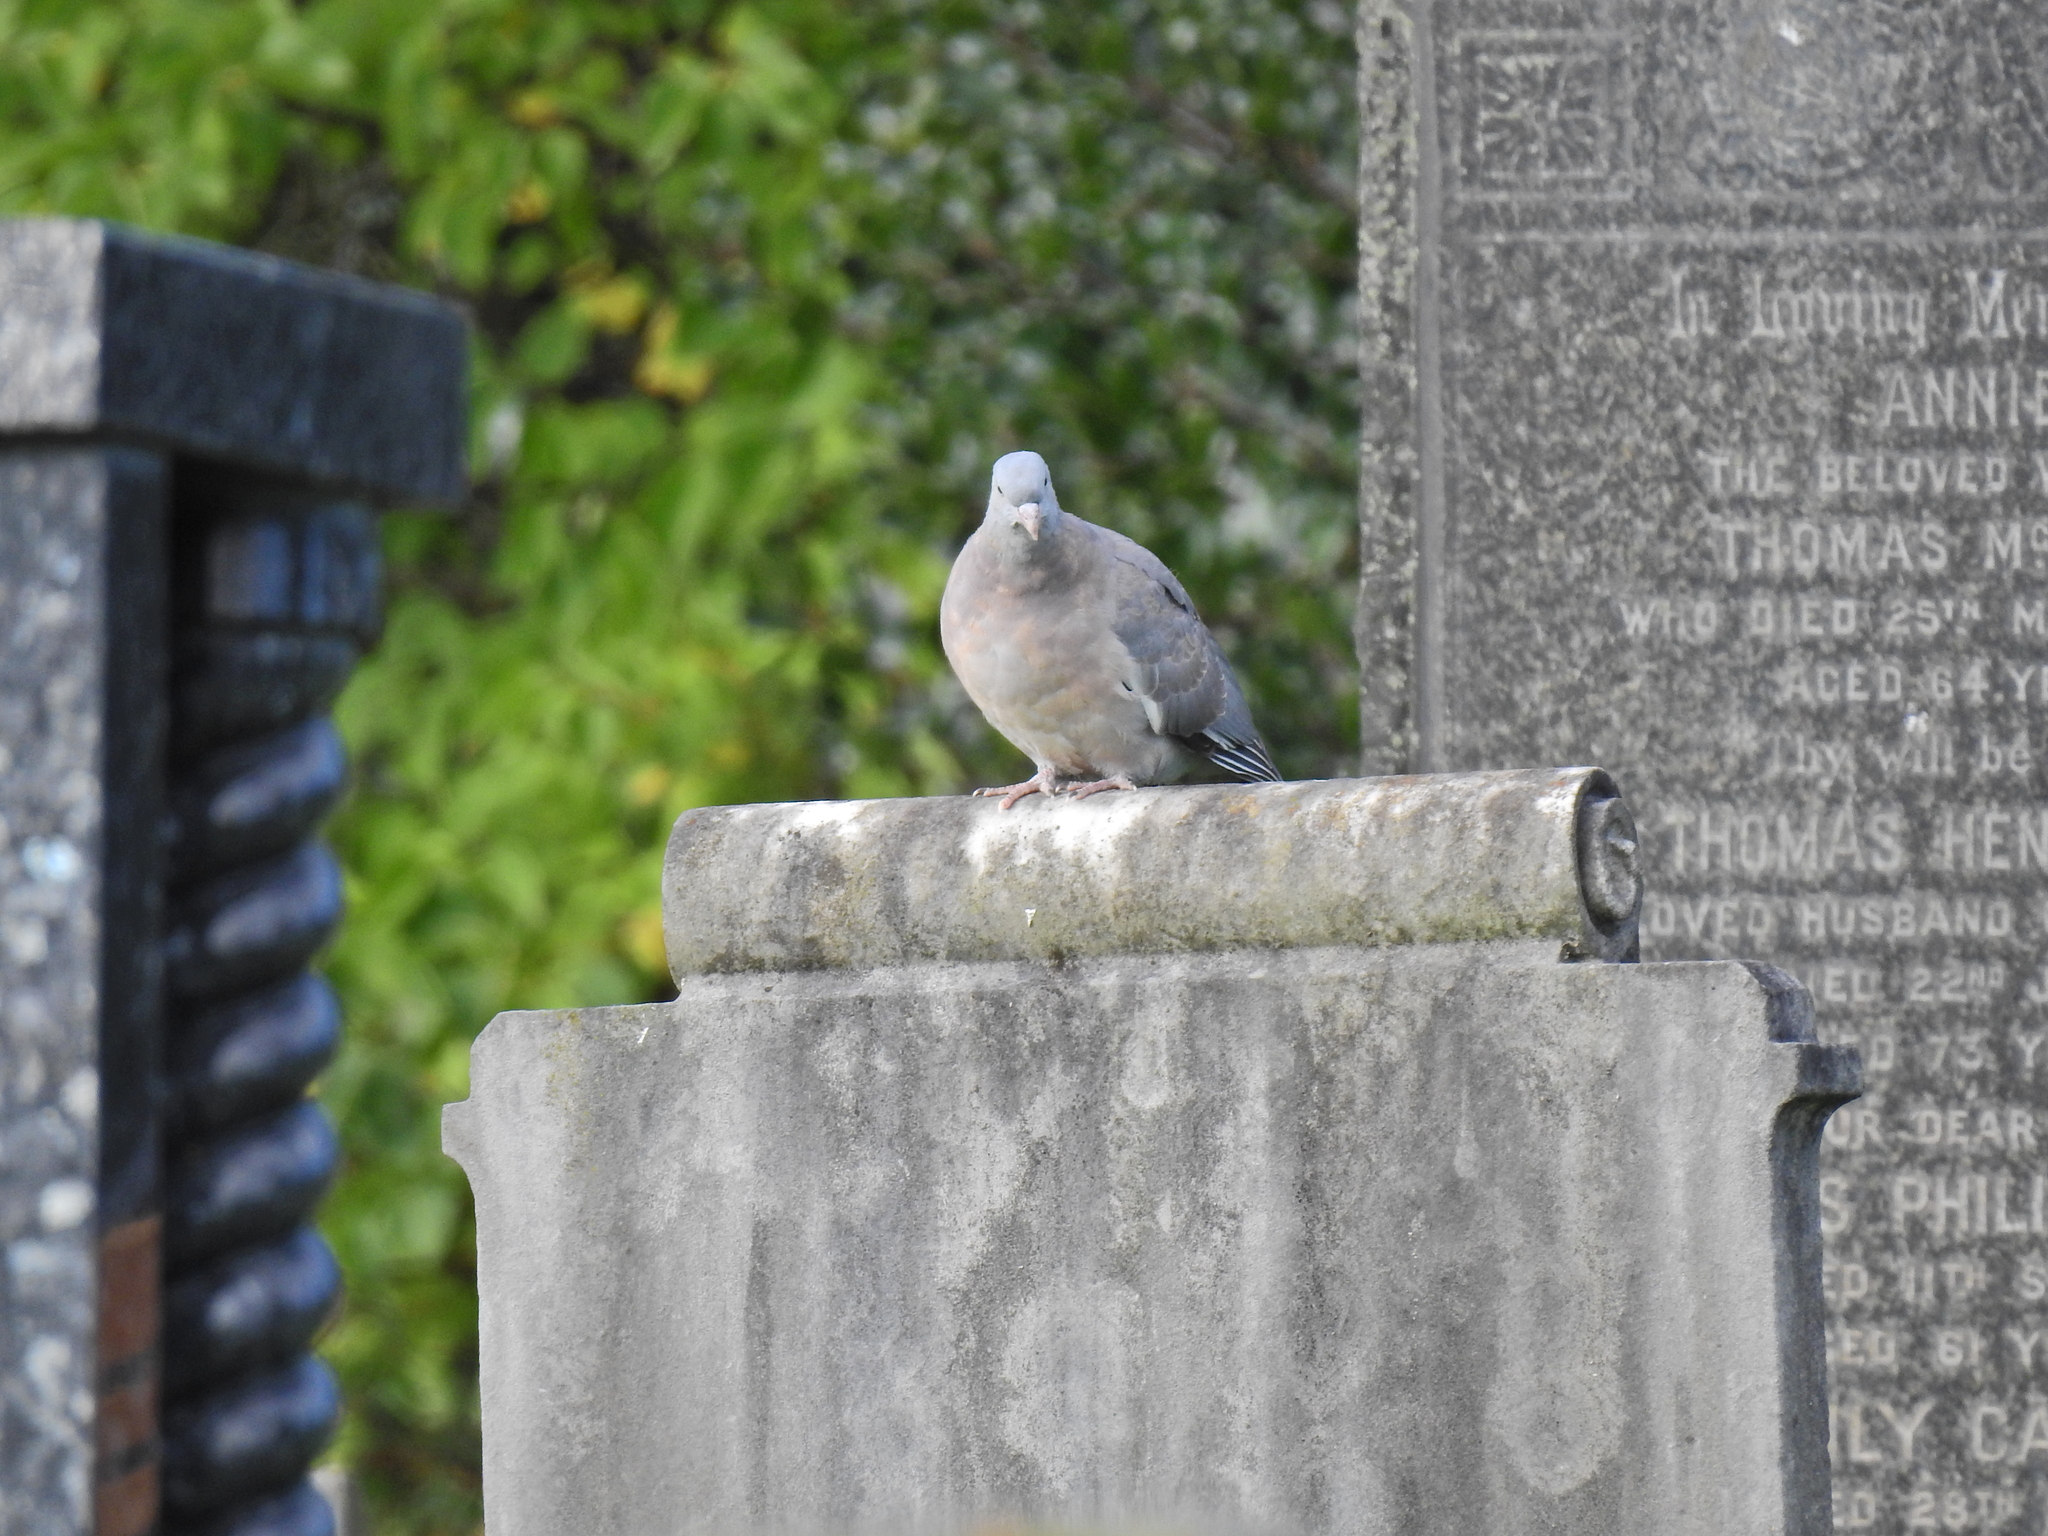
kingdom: Animalia
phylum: Chordata
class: Aves
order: Columbiformes
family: Columbidae
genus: Columba
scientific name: Columba palumbus
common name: Common wood pigeon
